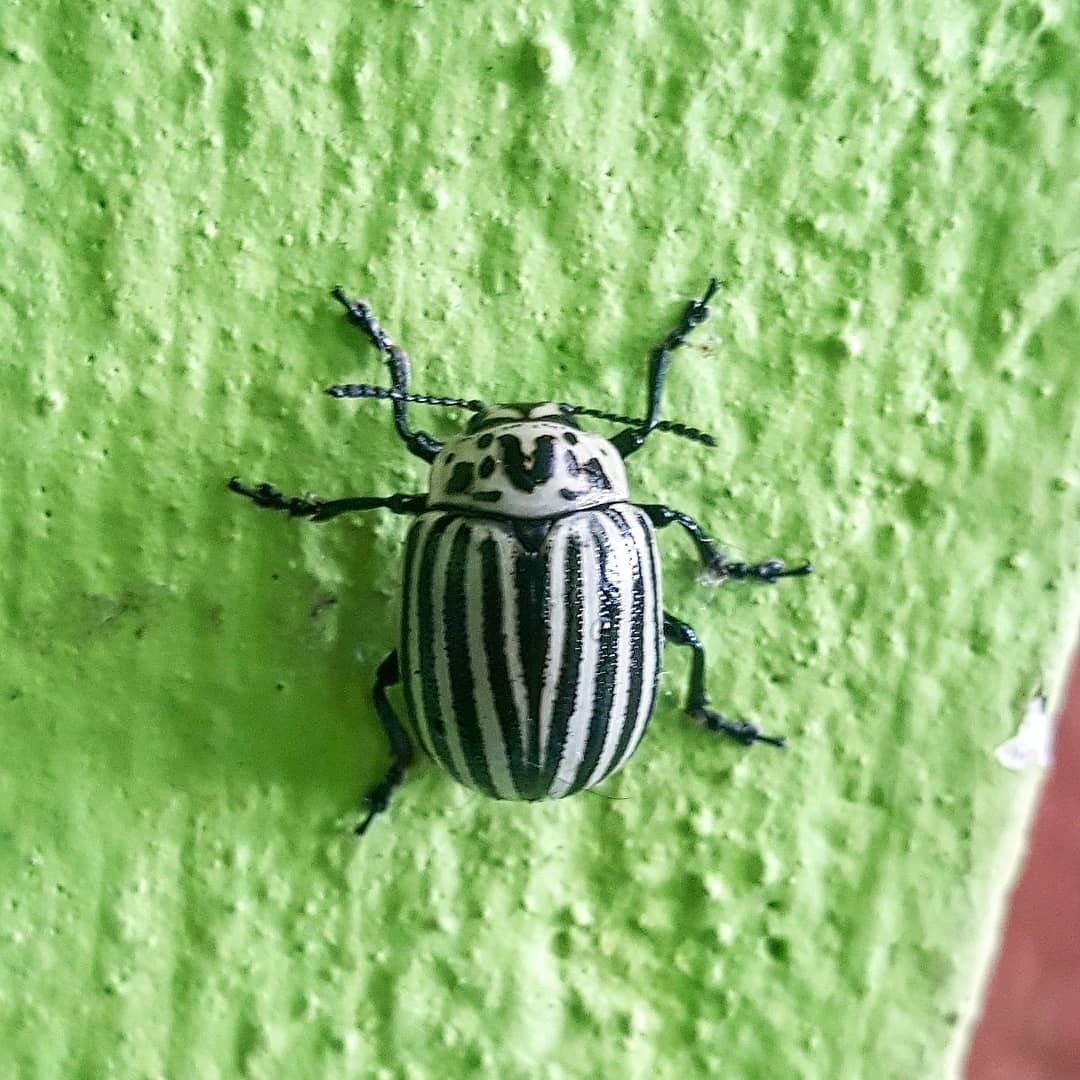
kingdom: Animalia
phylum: Arthropoda
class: Insecta
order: Coleoptera
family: Chrysomelidae
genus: Leptinotarsa
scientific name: Leptinotarsa
